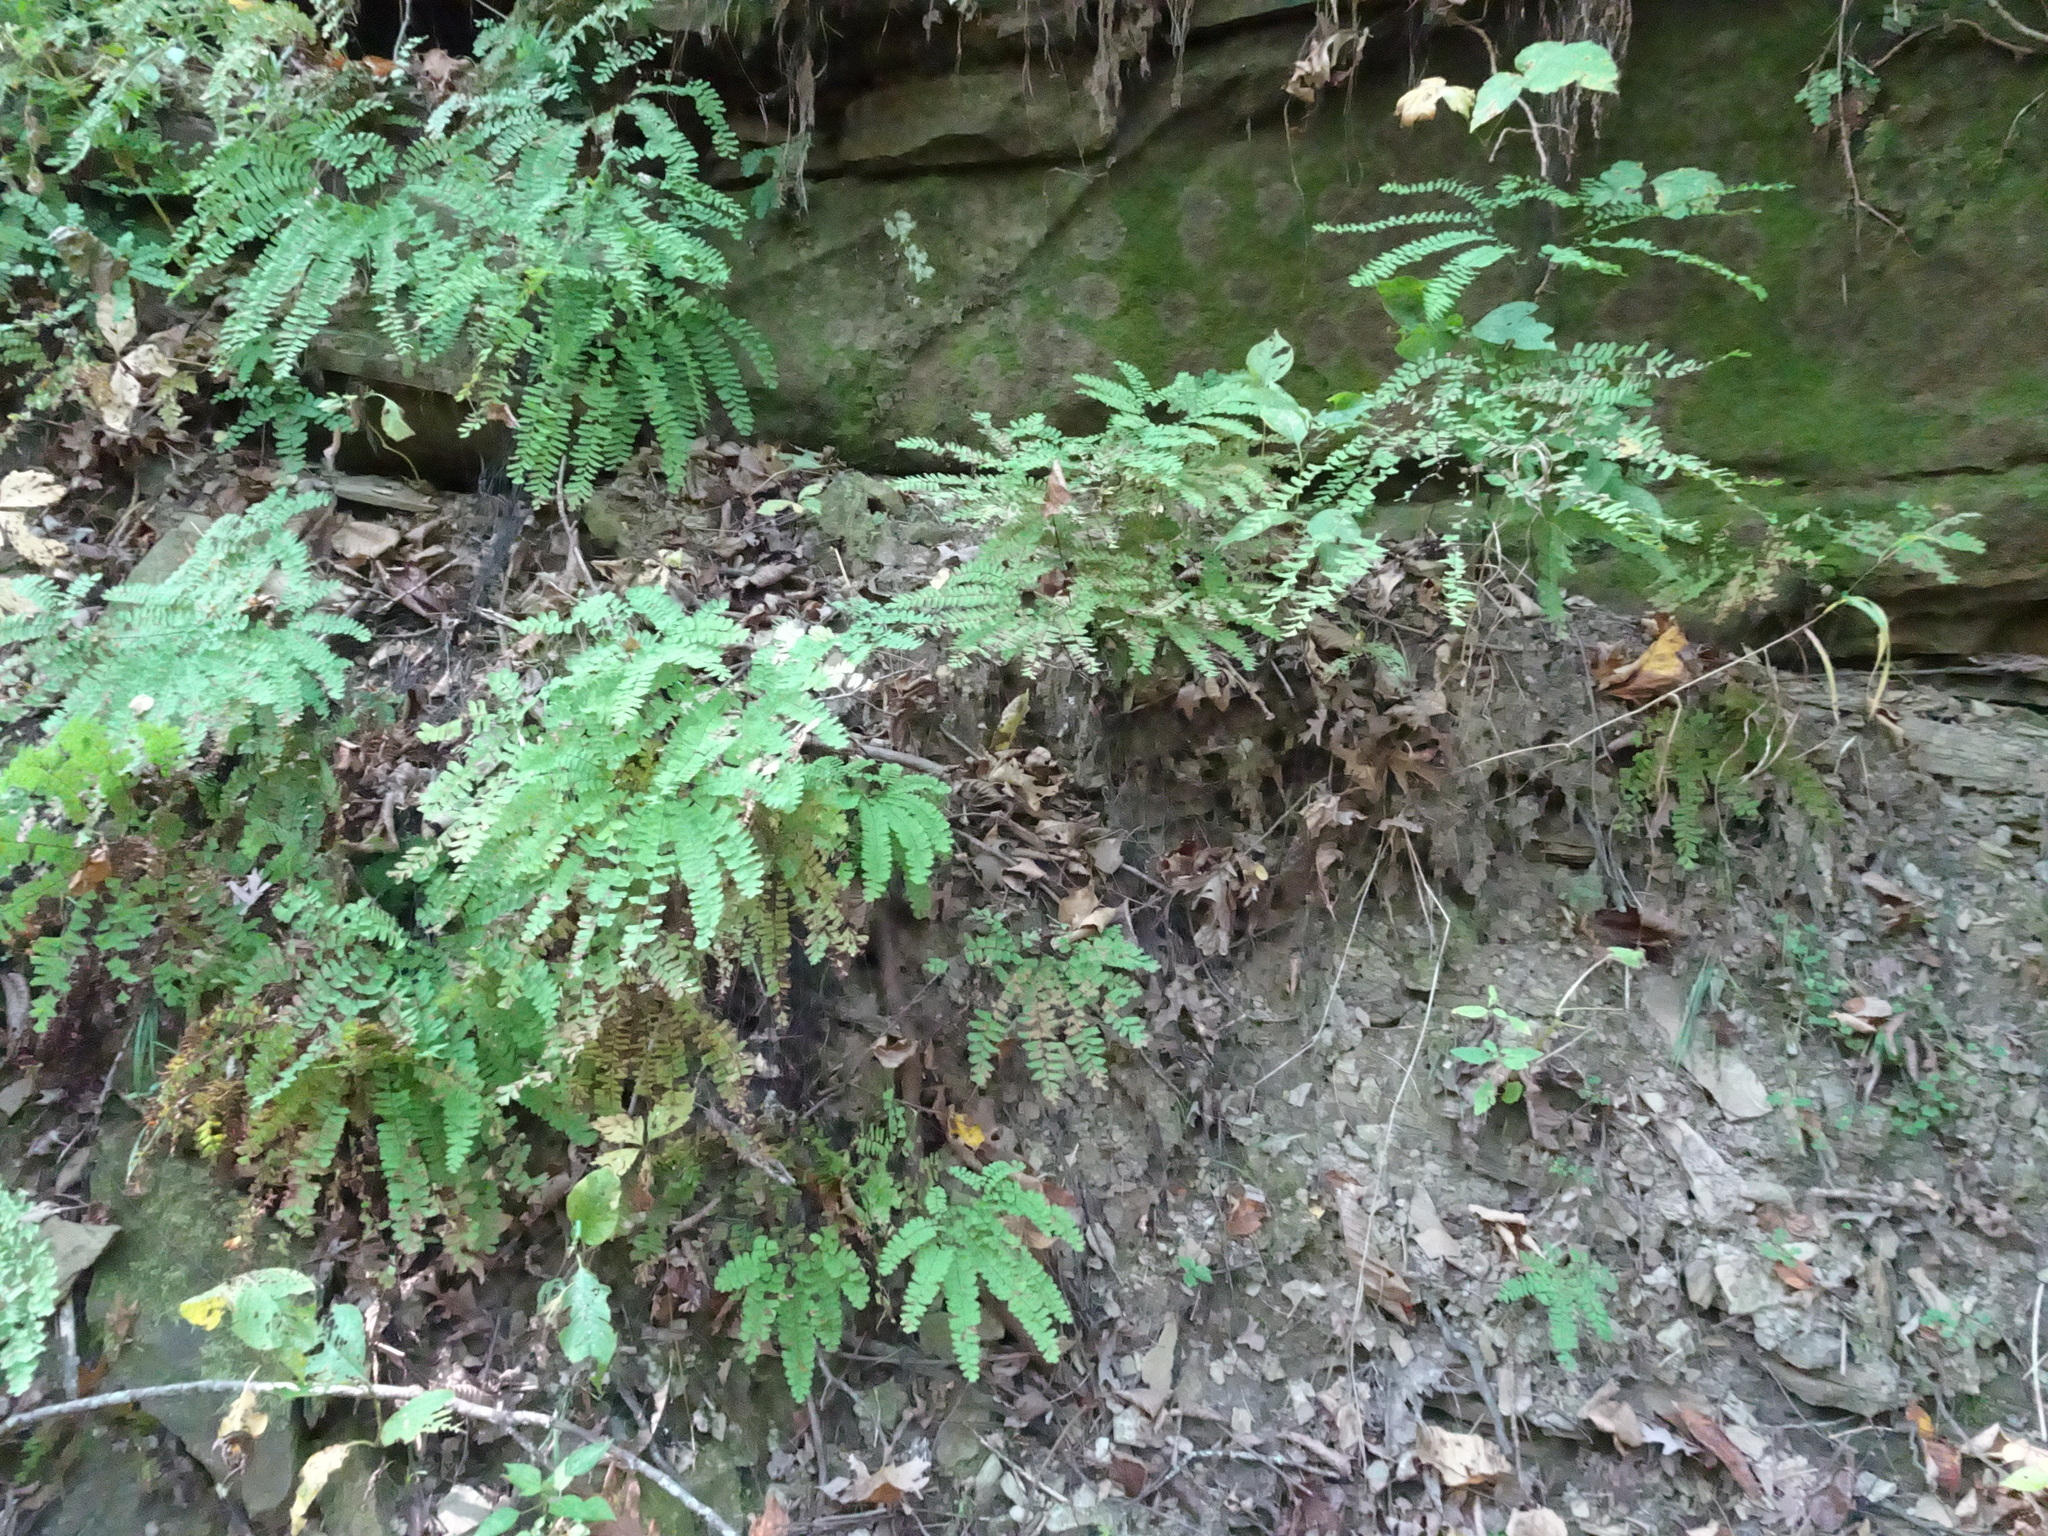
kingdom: Plantae
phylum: Tracheophyta
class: Polypodiopsida
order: Polypodiales
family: Pteridaceae
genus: Adiantum
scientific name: Adiantum pedatum
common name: Five-finger fern
